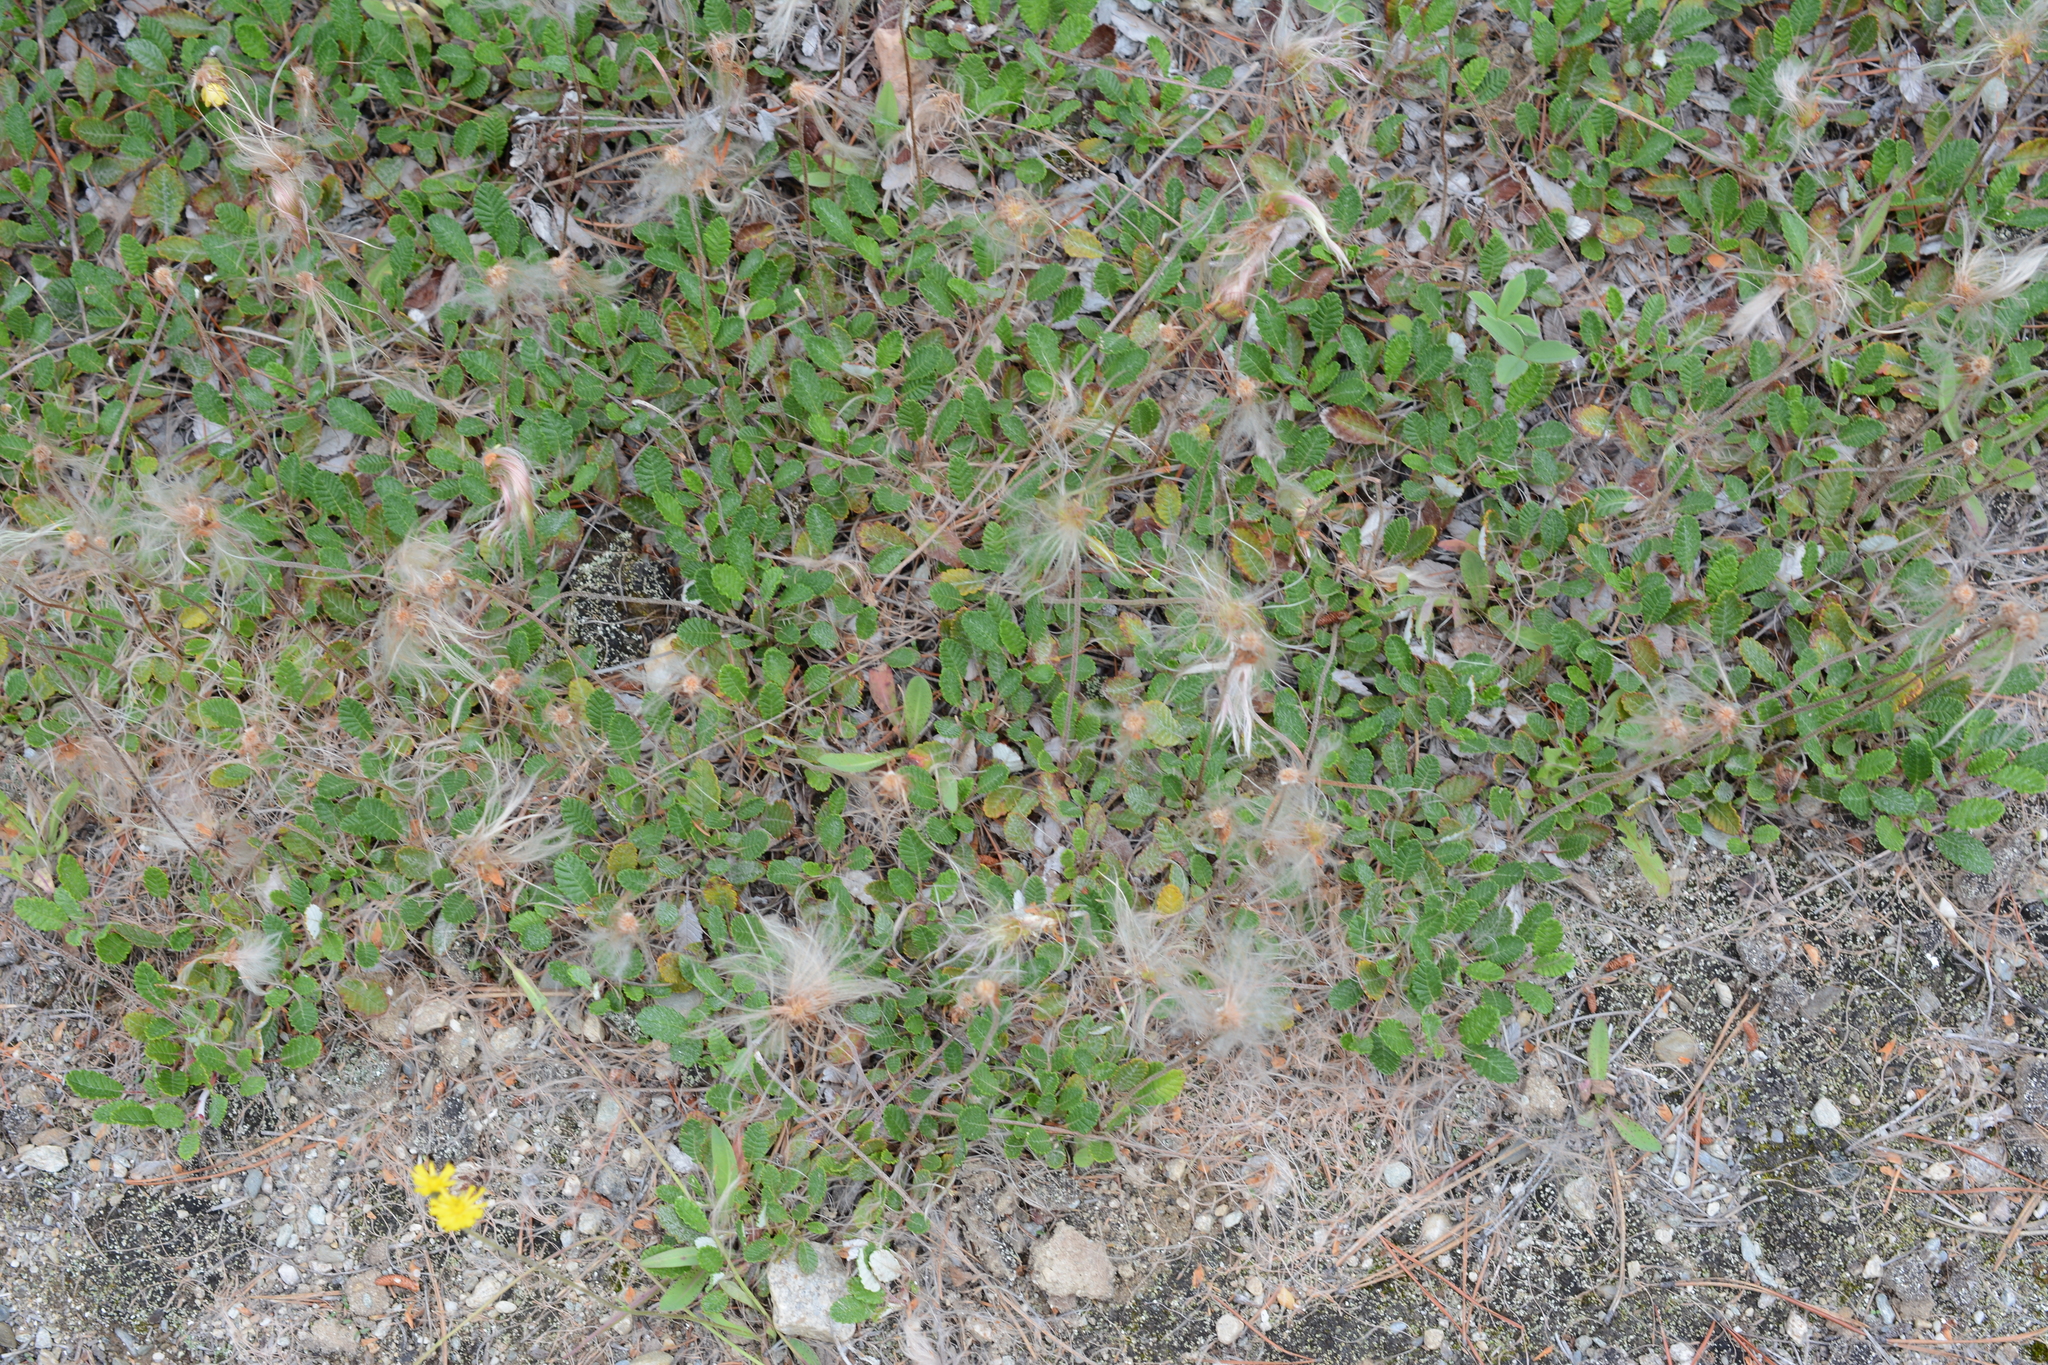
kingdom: Plantae
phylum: Tracheophyta
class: Magnoliopsida
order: Rosales
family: Rosaceae
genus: Dryas
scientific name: Dryas drummondii
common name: Drummond's dryad
